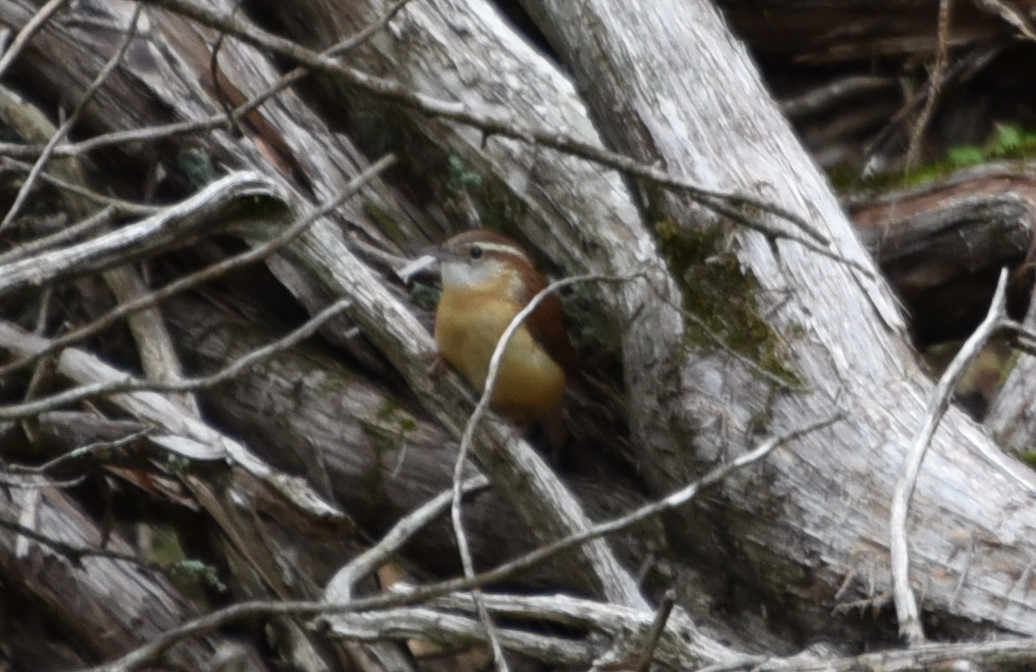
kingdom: Animalia
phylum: Chordata
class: Aves
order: Passeriformes
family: Troglodytidae
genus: Thryothorus
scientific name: Thryothorus ludovicianus
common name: Carolina wren
